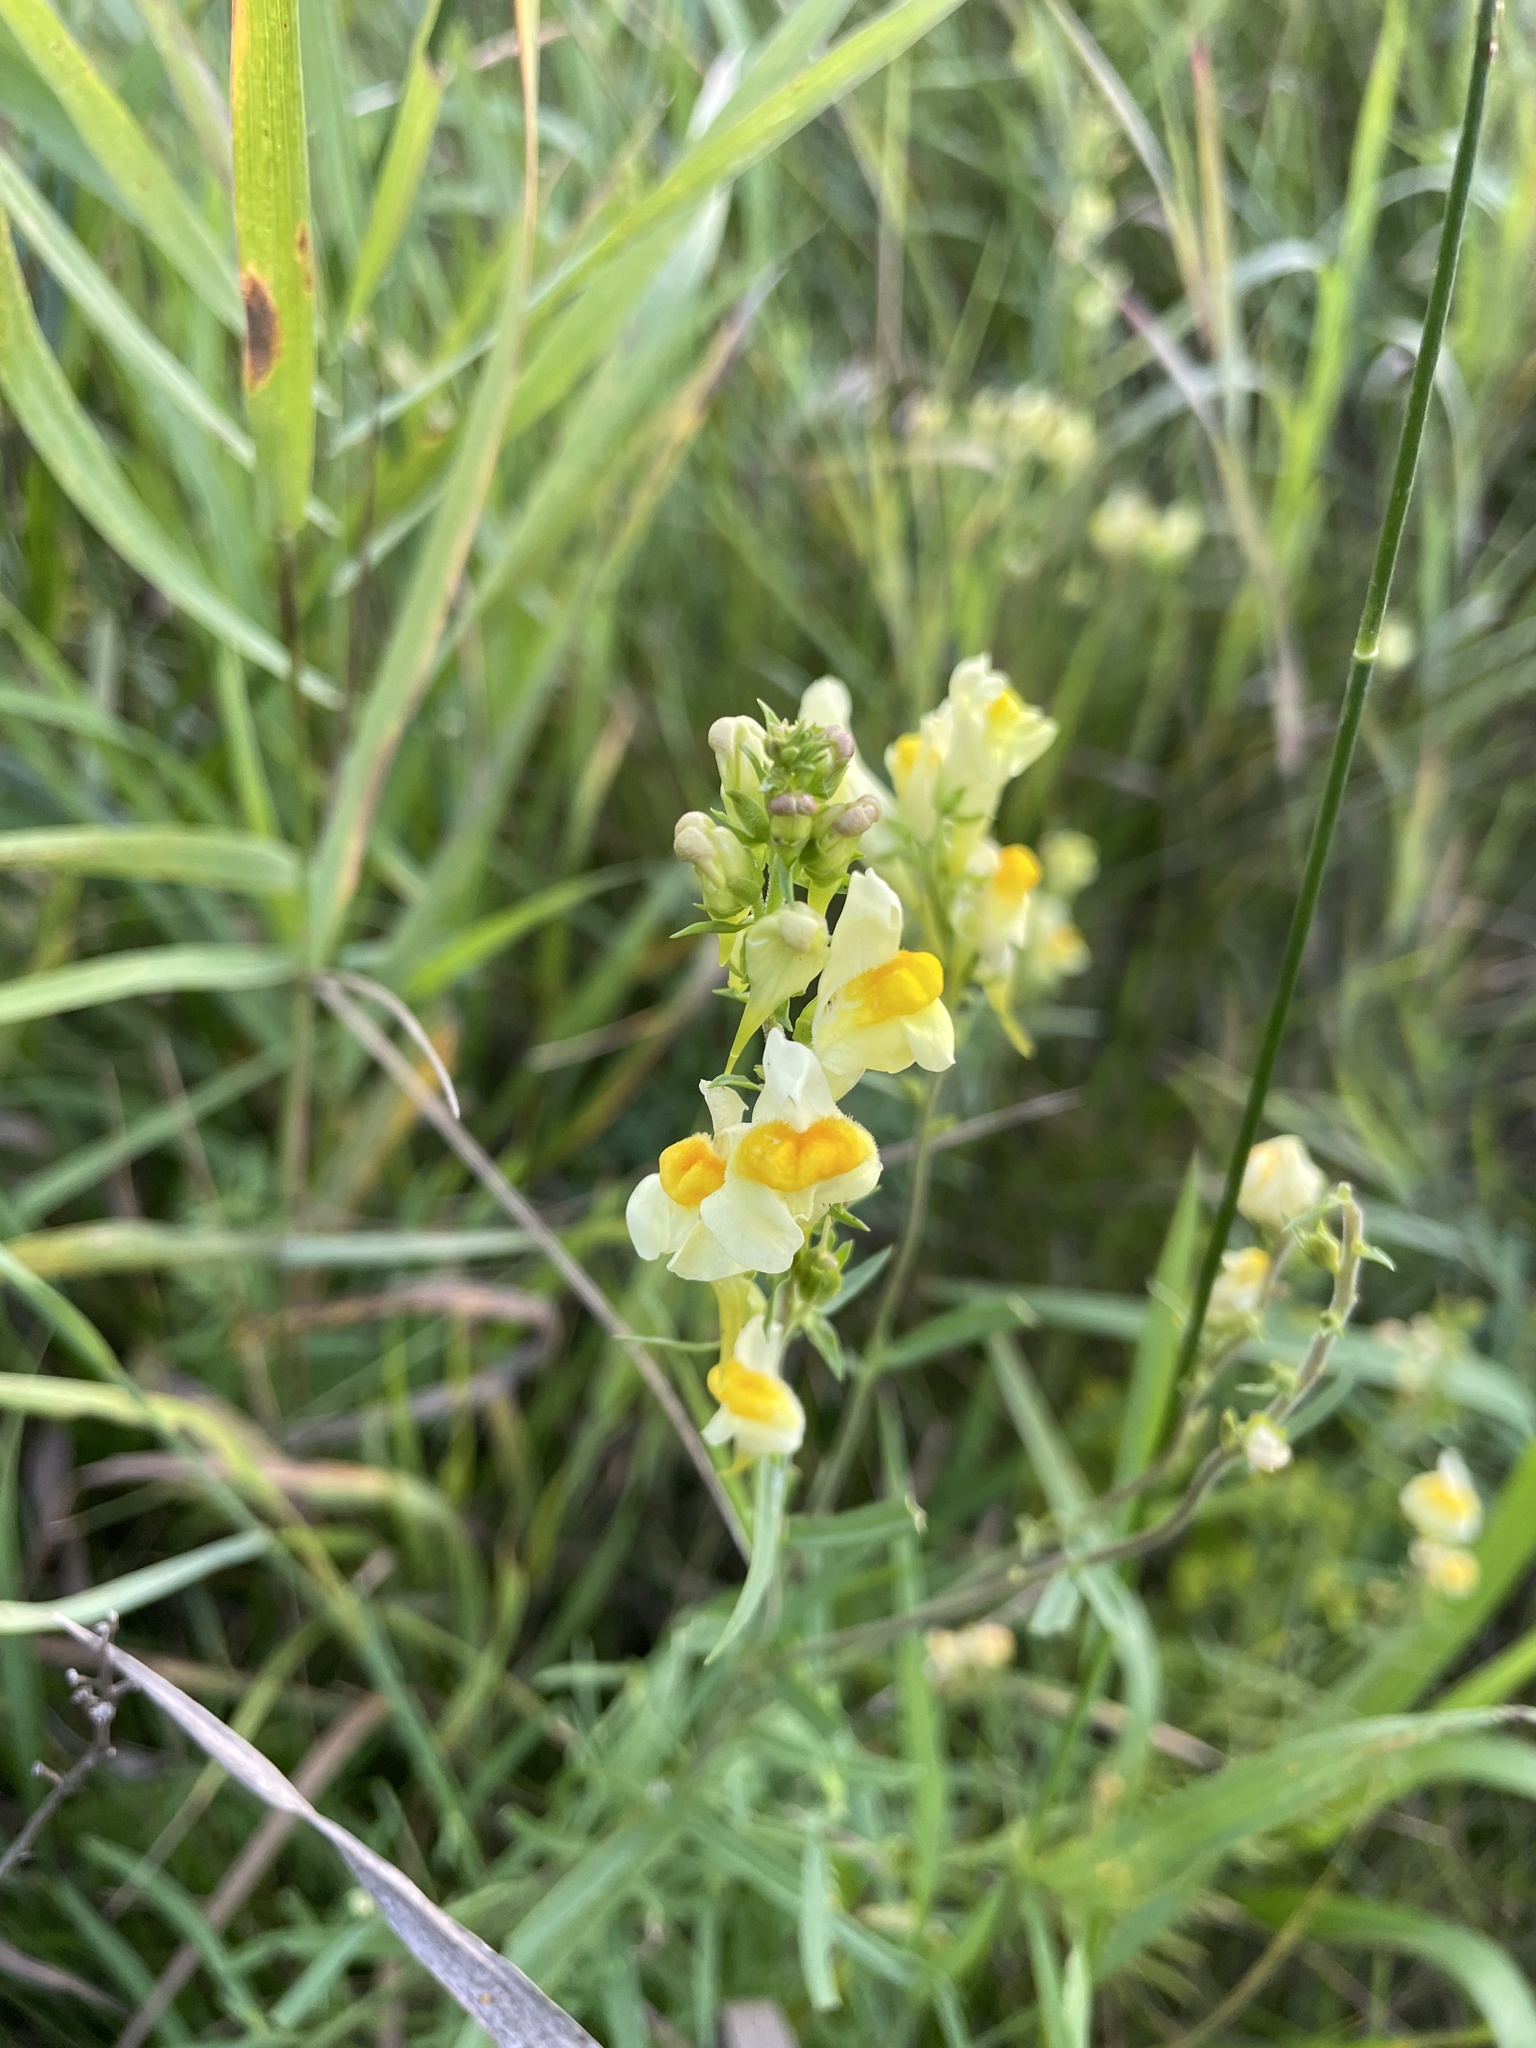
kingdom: Plantae
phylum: Tracheophyta
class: Magnoliopsida
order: Lamiales
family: Plantaginaceae
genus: Linaria
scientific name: Linaria vulgaris
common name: Butter and eggs
